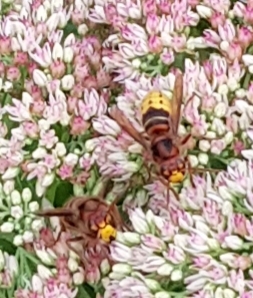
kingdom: Animalia
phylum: Arthropoda
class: Insecta
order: Hymenoptera
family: Vespidae
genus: Vespa
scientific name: Vespa crabro
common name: Hornet
